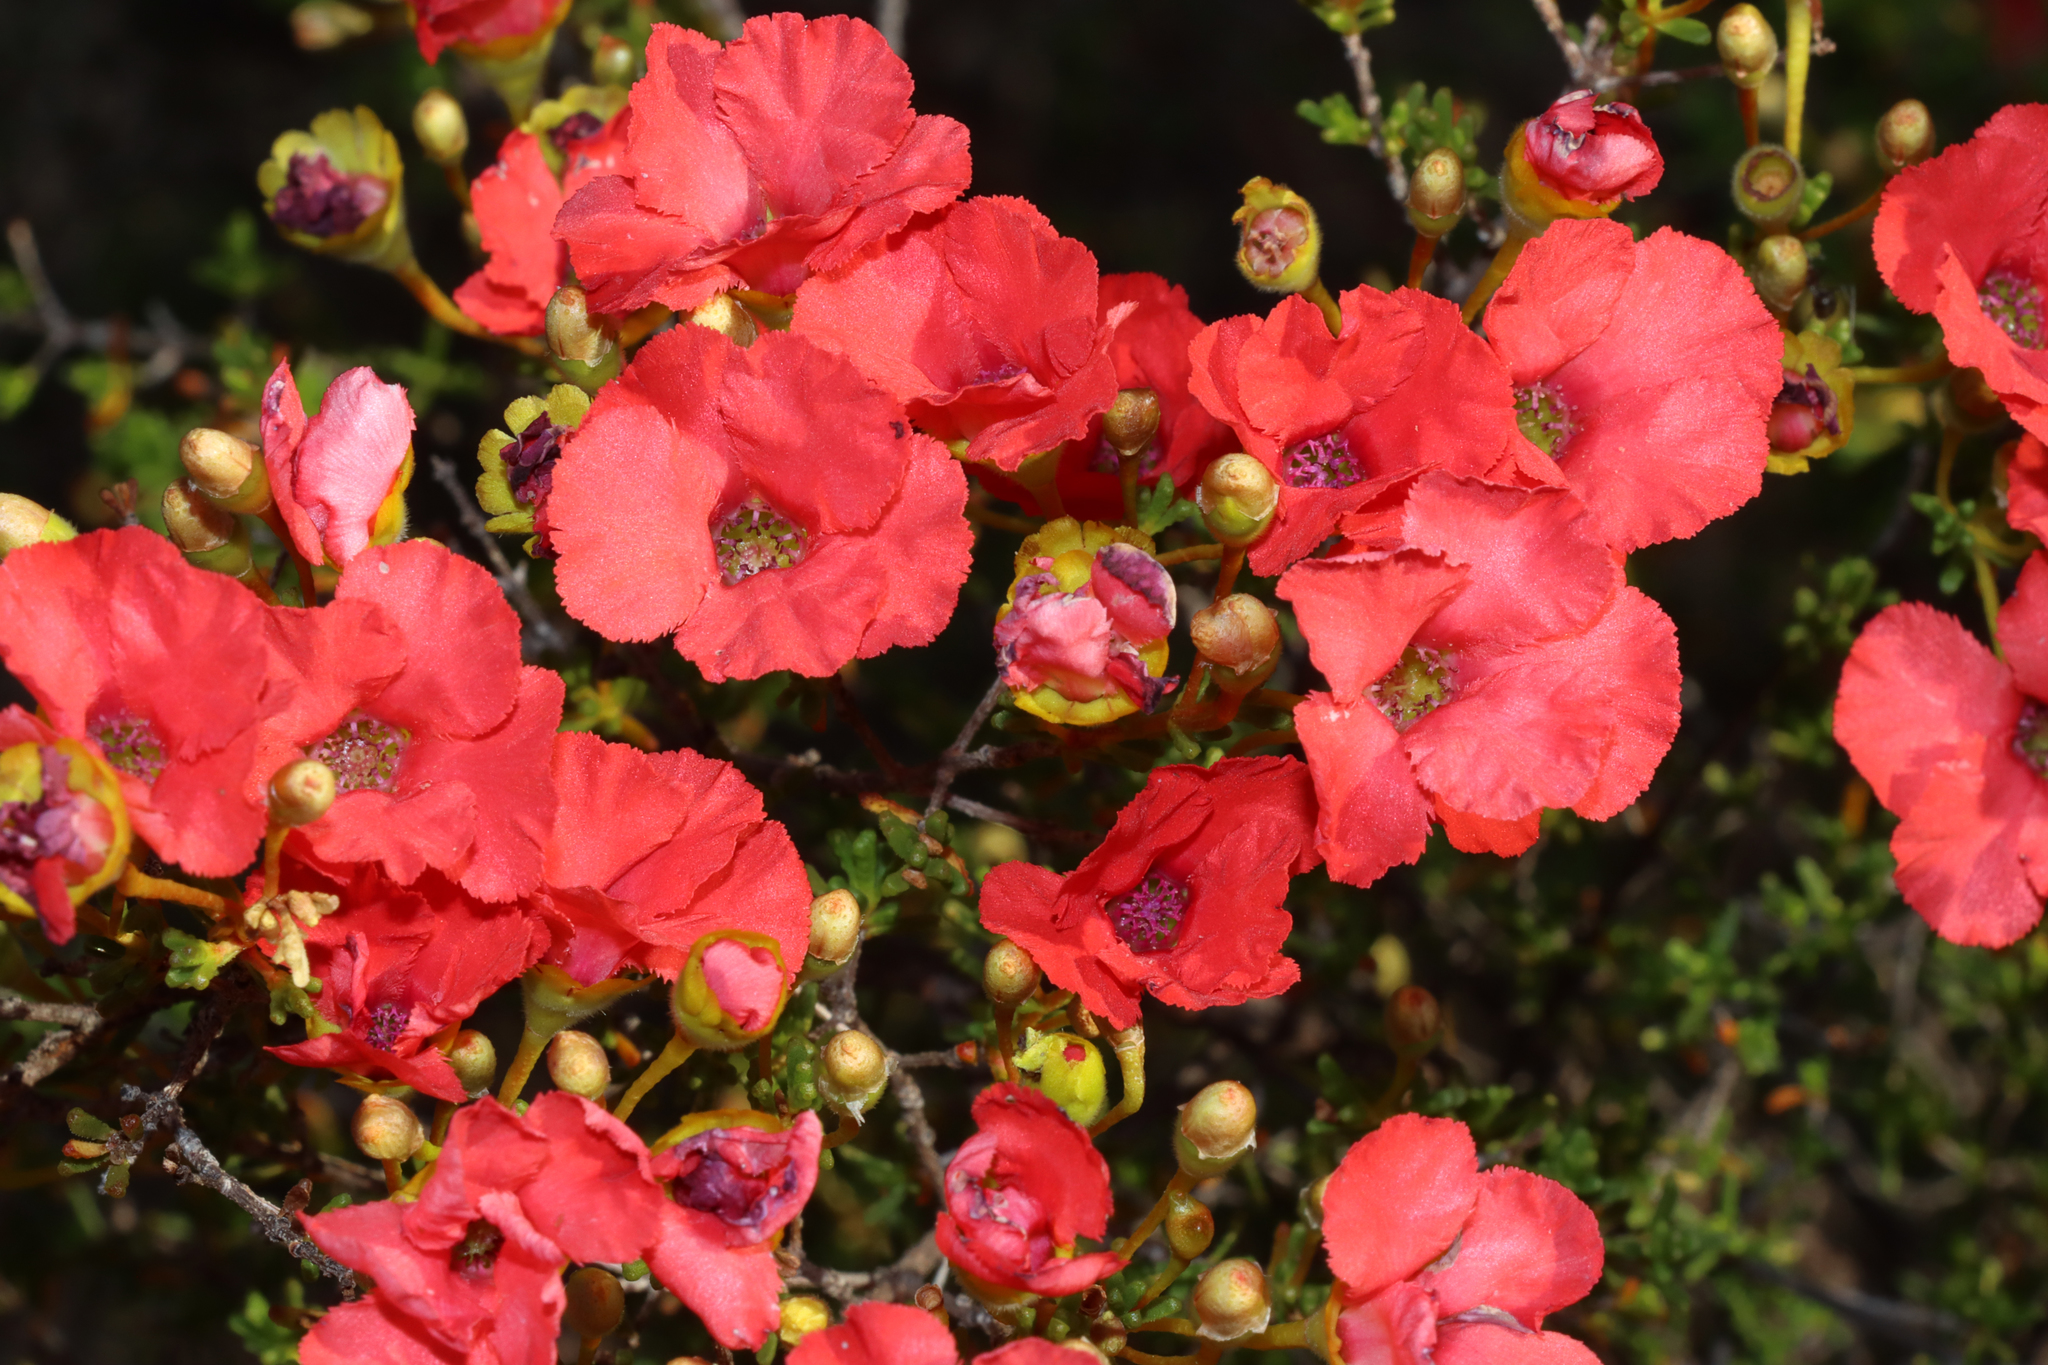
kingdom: Plantae
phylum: Tracheophyta
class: Magnoliopsida
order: Myrtales
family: Myrtaceae
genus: Pileanthus
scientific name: Pileanthus vernicosus
